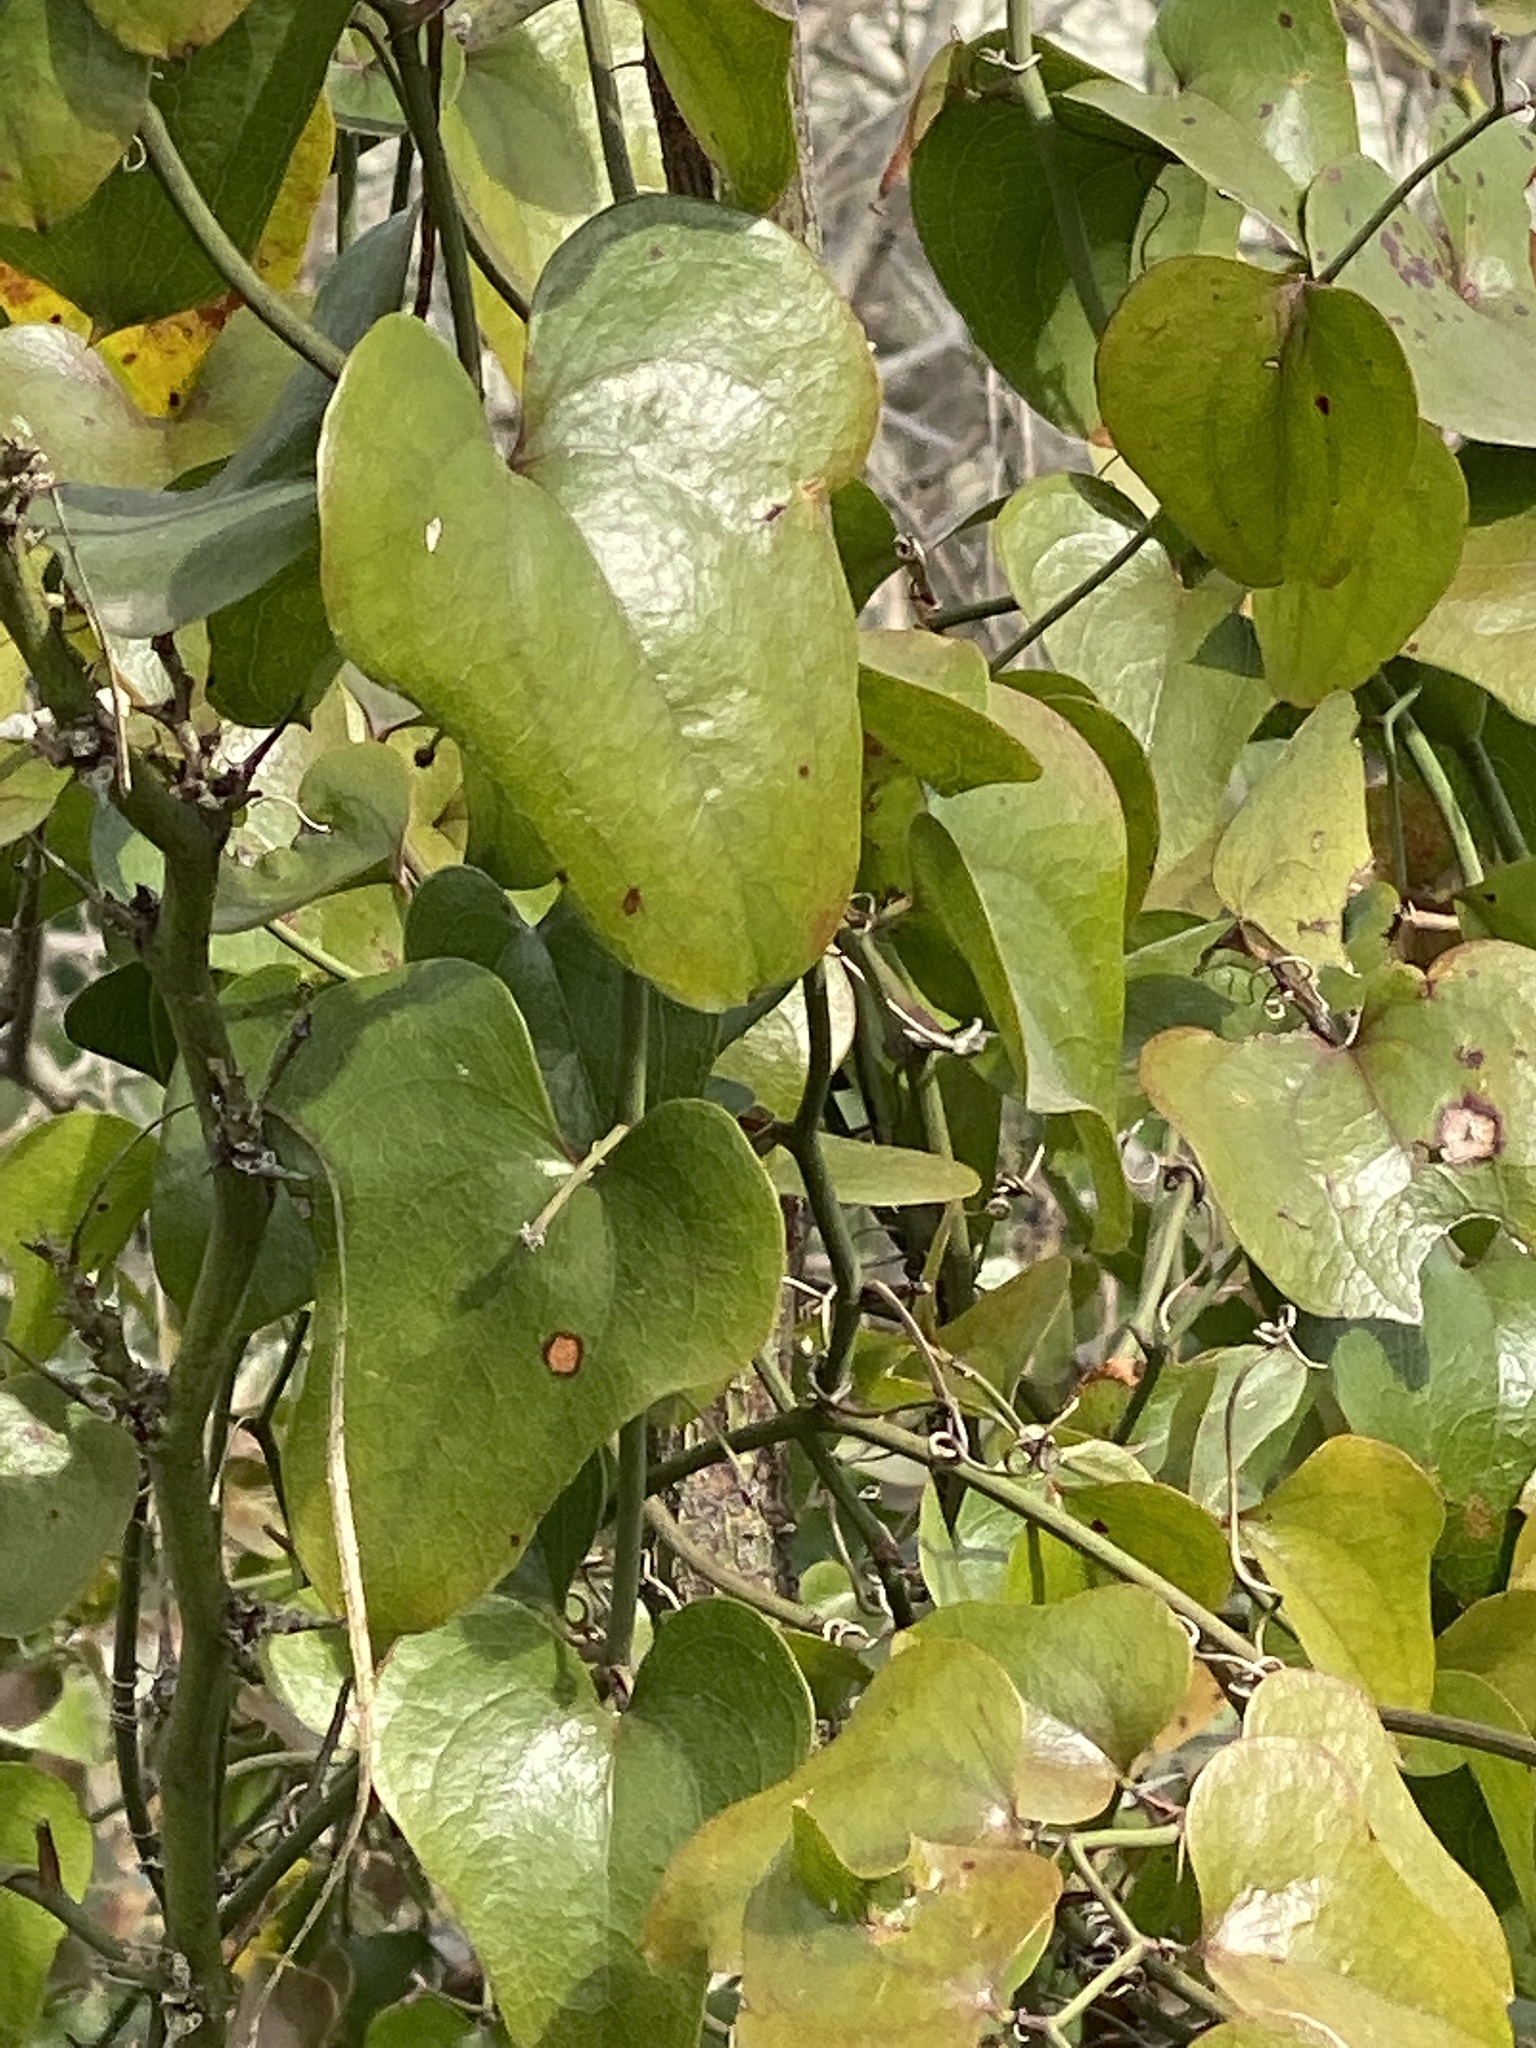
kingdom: Plantae
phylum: Tracheophyta
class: Liliopsida
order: Liliales
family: Smilacaceae
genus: Smilax
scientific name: Smilax bona-nox
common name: Catbrier
